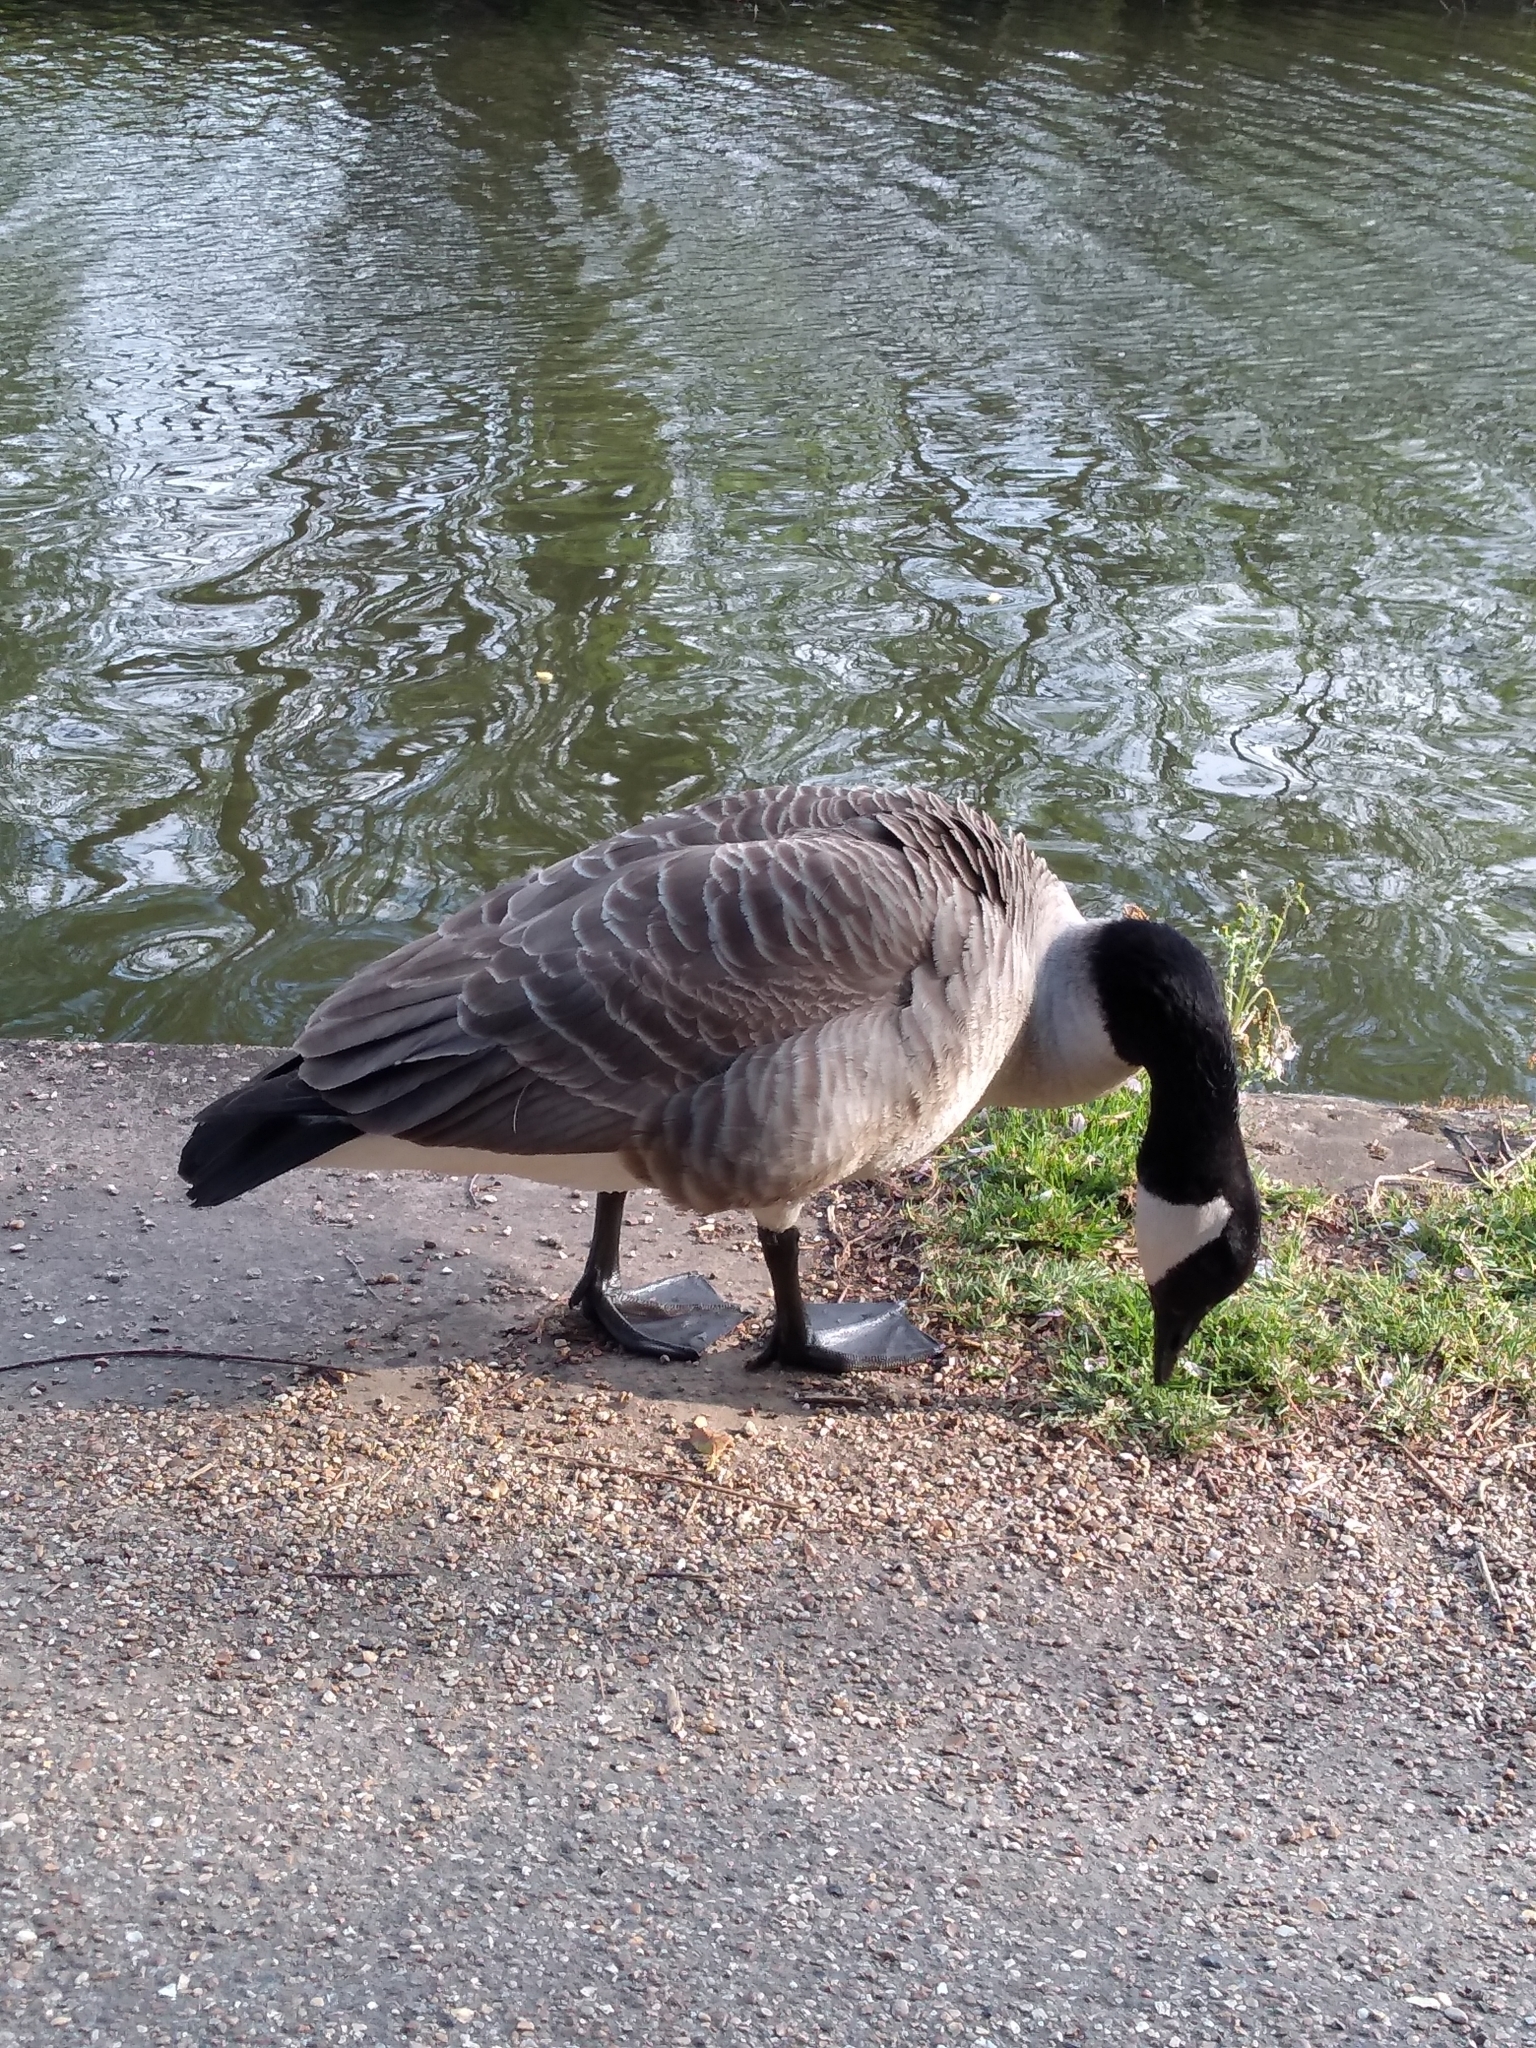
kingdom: Animalia
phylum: Chordata
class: Aves
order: Anseriformes
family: Anatidae
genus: Branta
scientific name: Branta canadensis
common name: Canada goose
